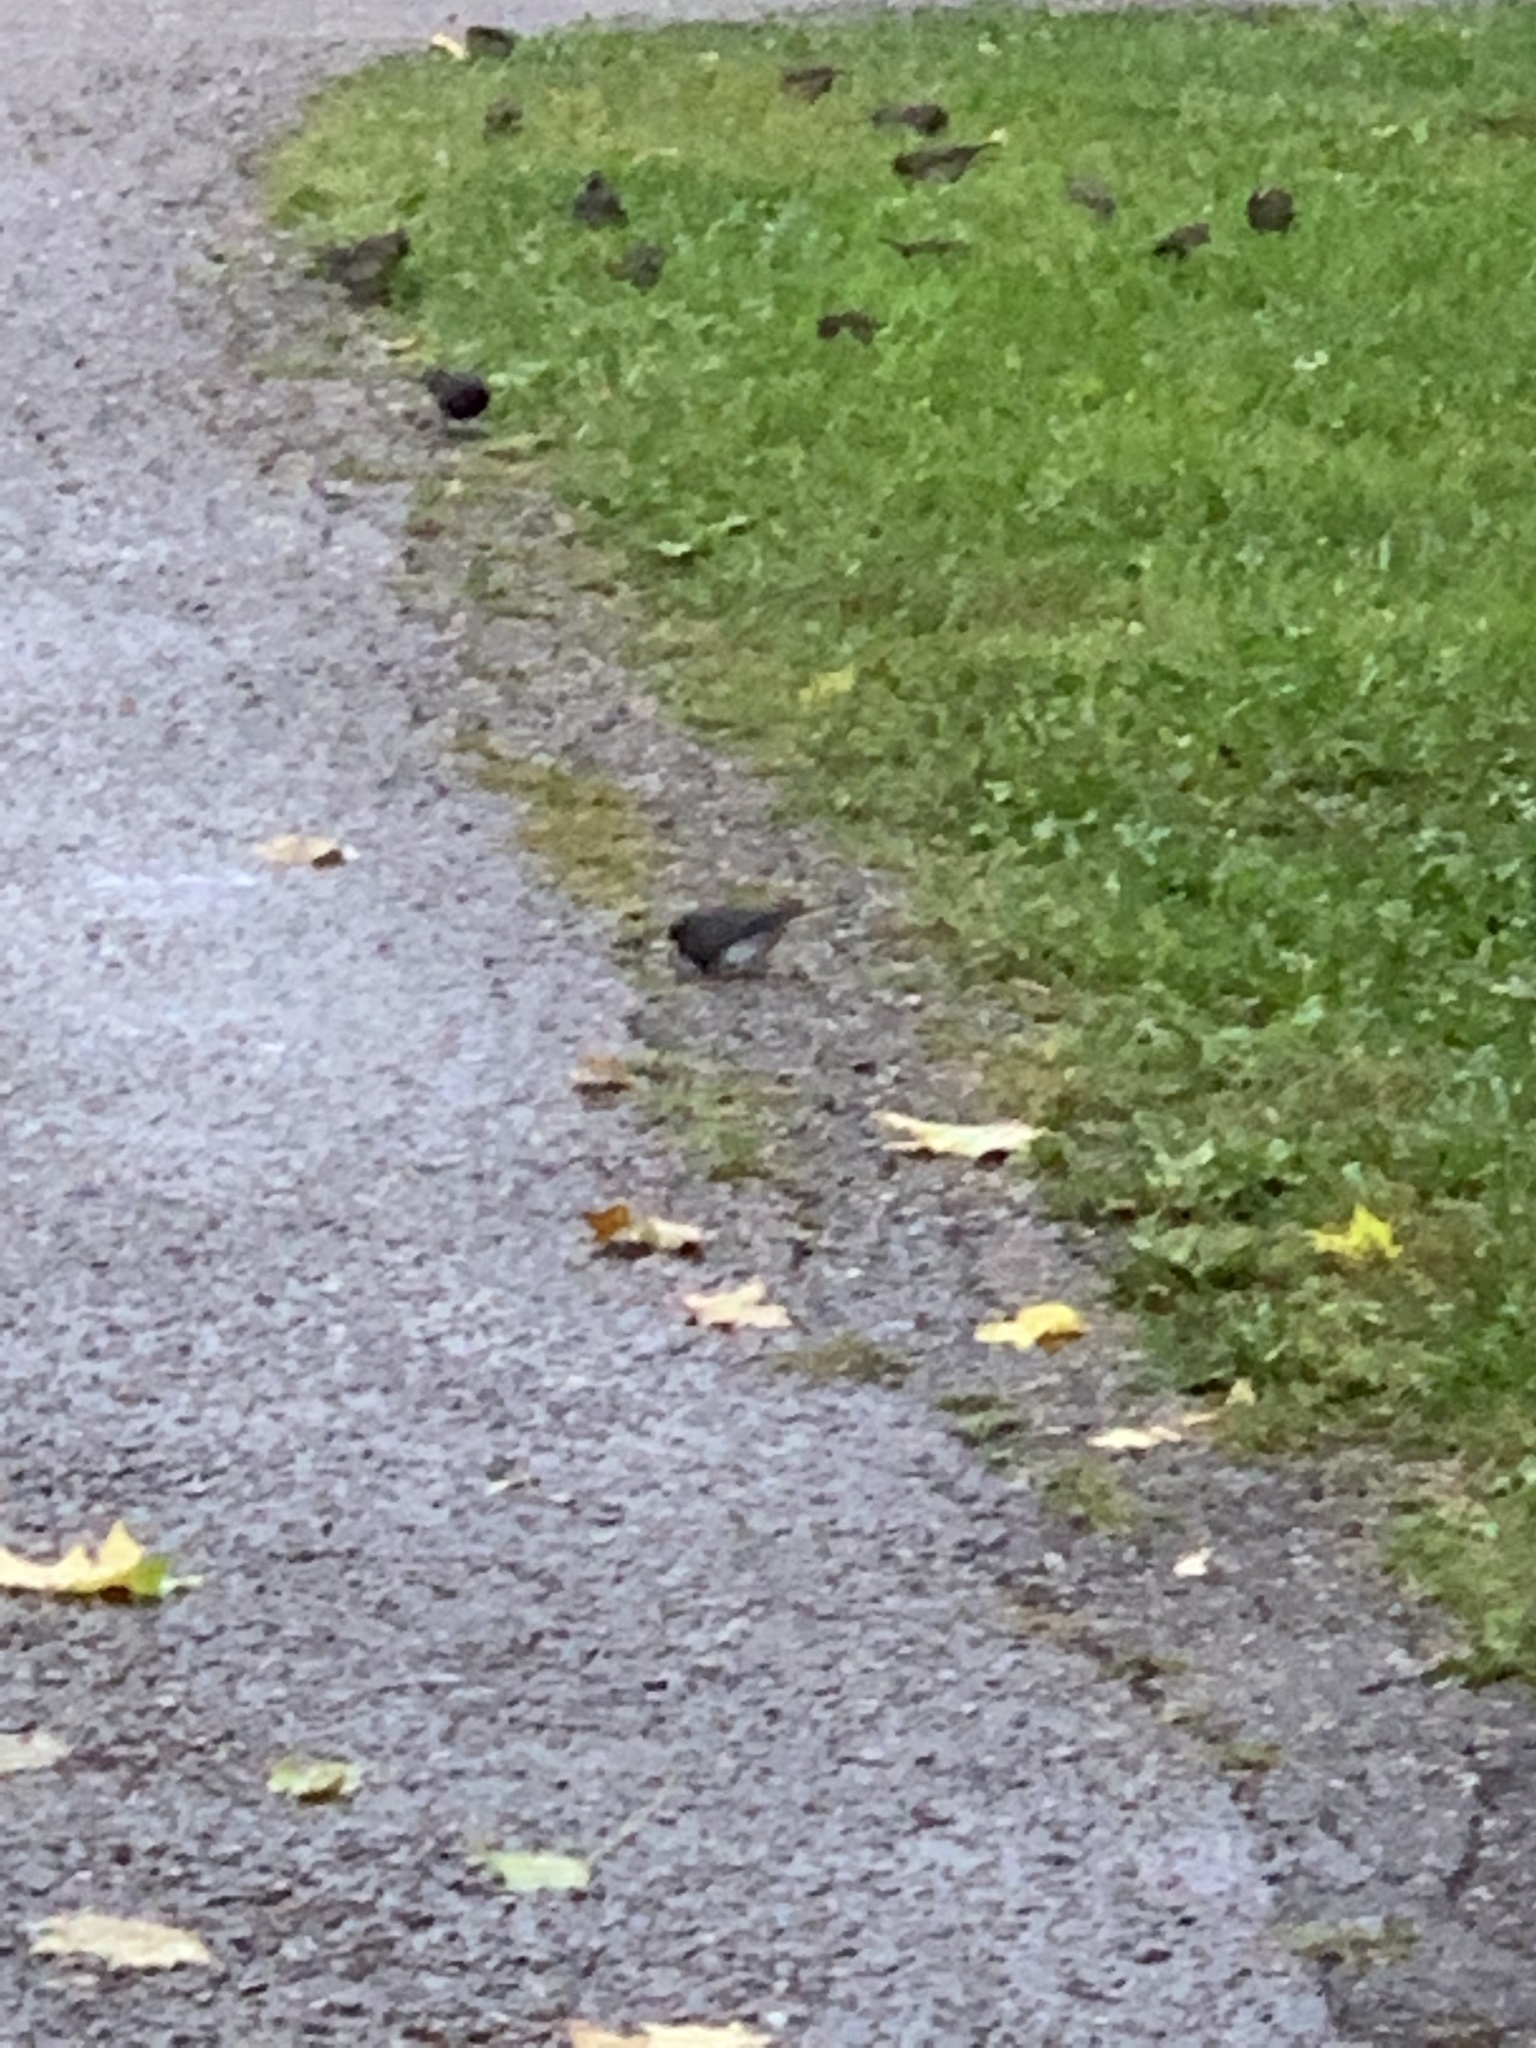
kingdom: Animalia
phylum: Chordata
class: Aves
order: Passeriformes
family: Passerellidae
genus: Junco
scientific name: Junco hyemalis
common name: Dark-eyed junco
